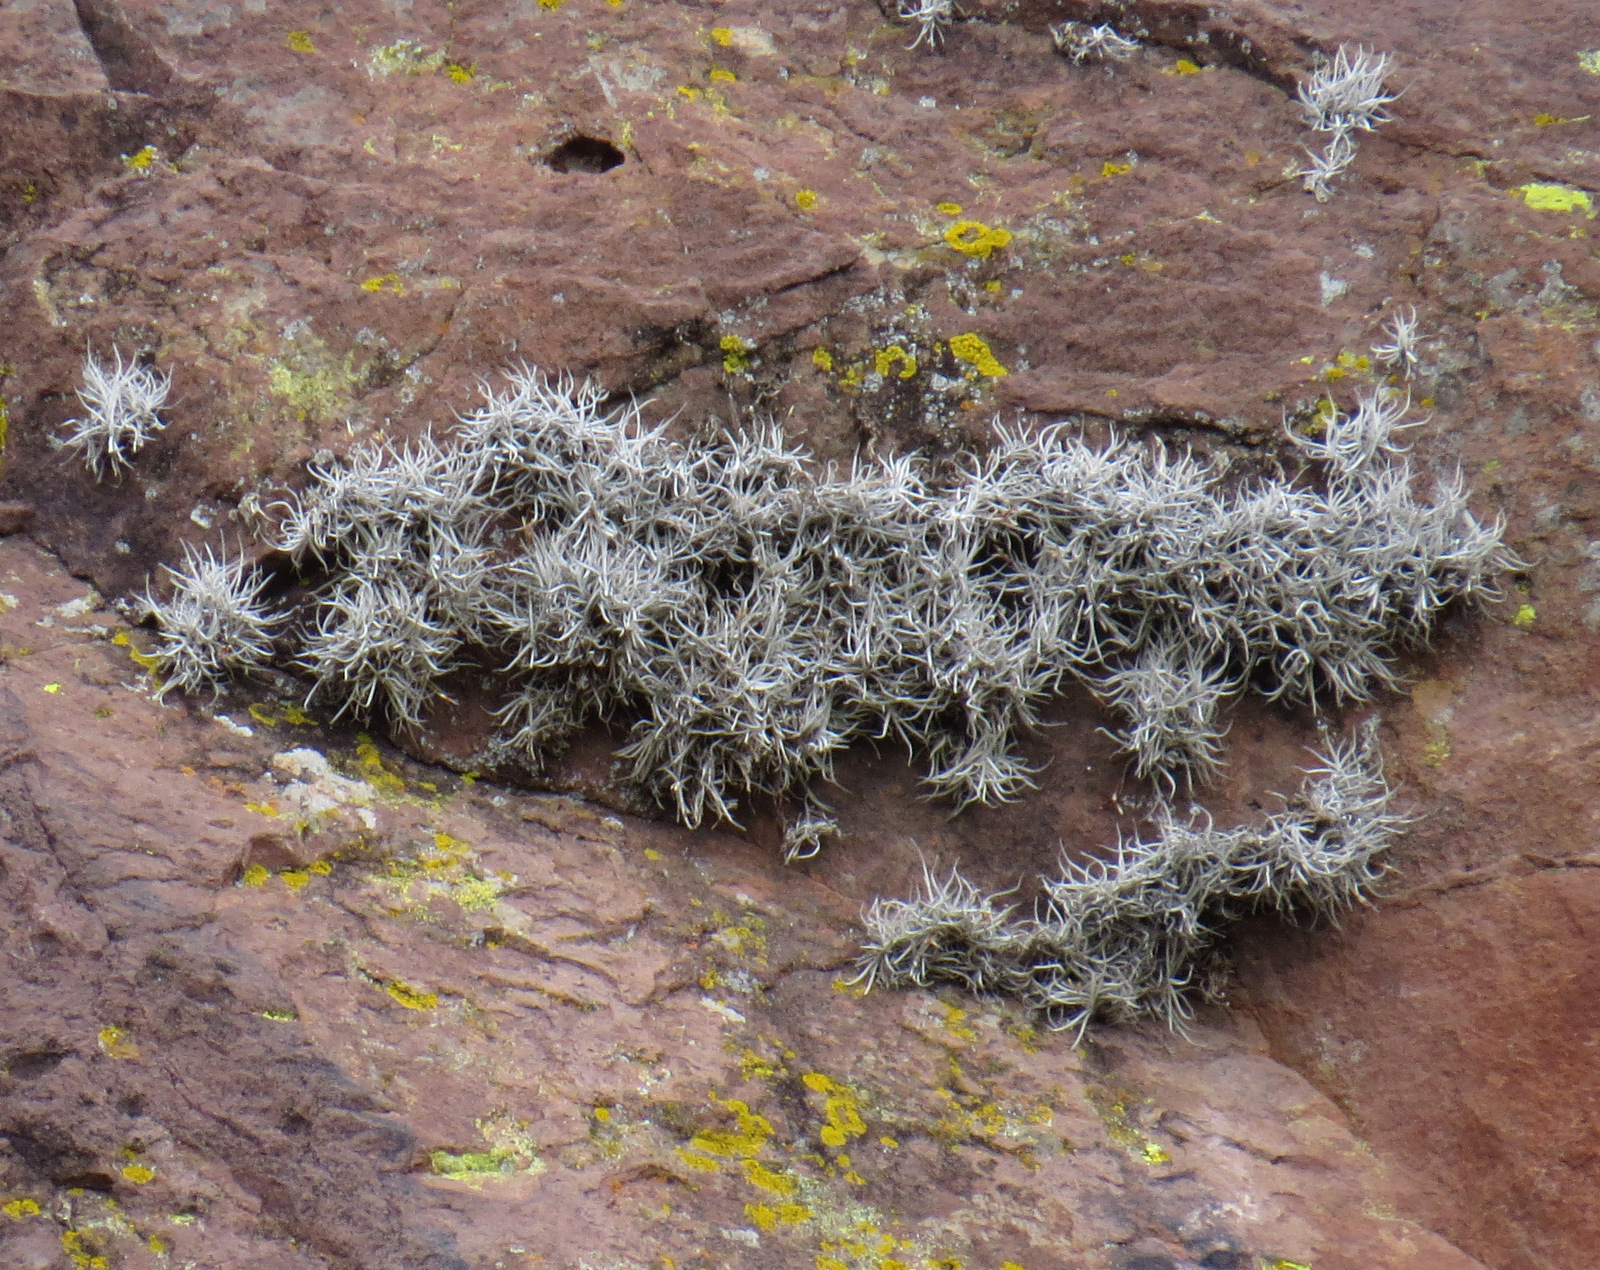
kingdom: Plantae
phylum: Tracheophyta
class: Liliopsida
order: Poales
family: Bromeliaceae
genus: Tillandsia
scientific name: Tillandsia recurvata
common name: Small ballmoss
